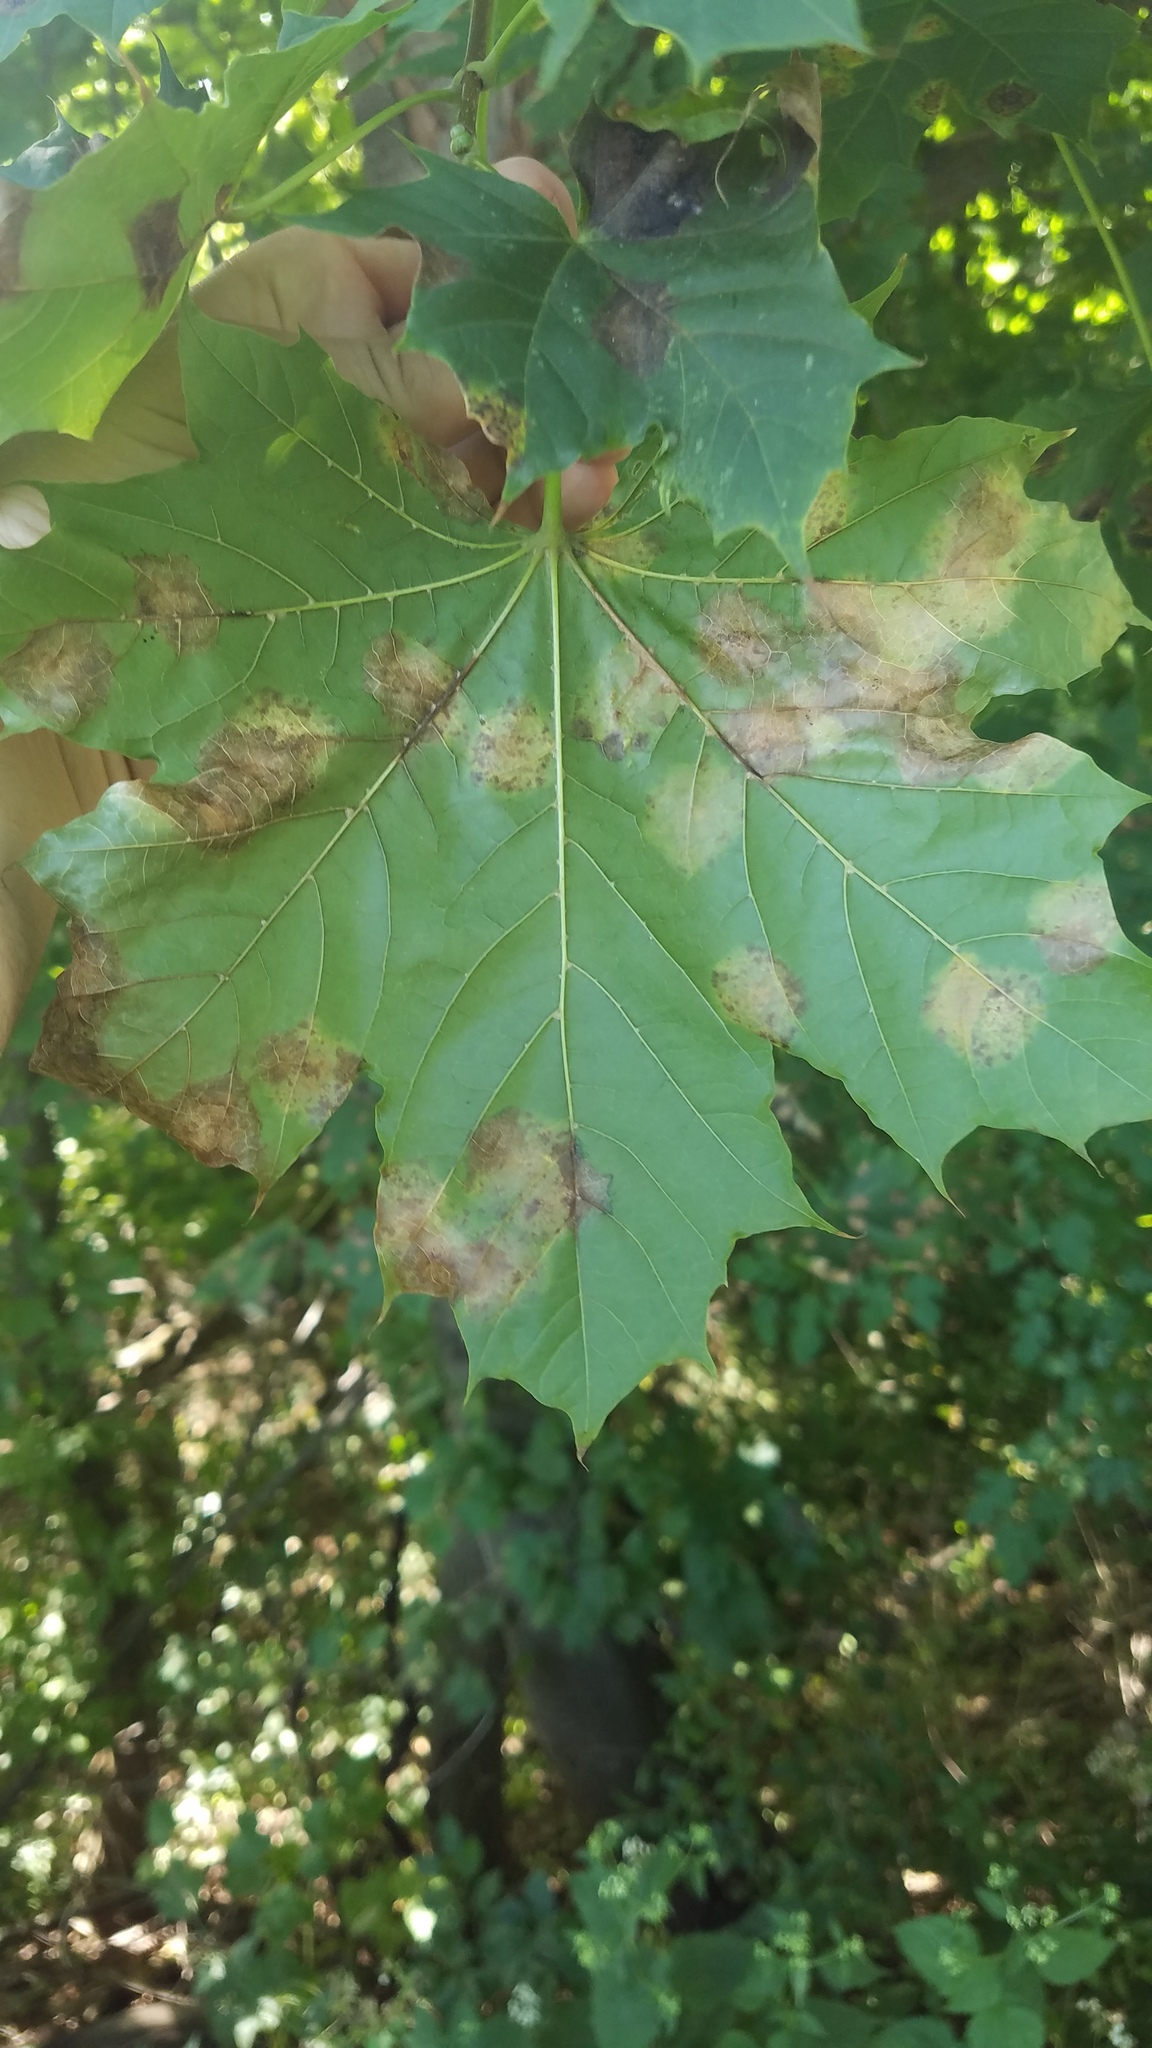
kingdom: Fungi
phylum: Ascomycota
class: Leotiomycetes
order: Rhytismatales
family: Rhytismataceae
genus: Rhytisma
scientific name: Rhytisma acerinum
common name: European tar spot
